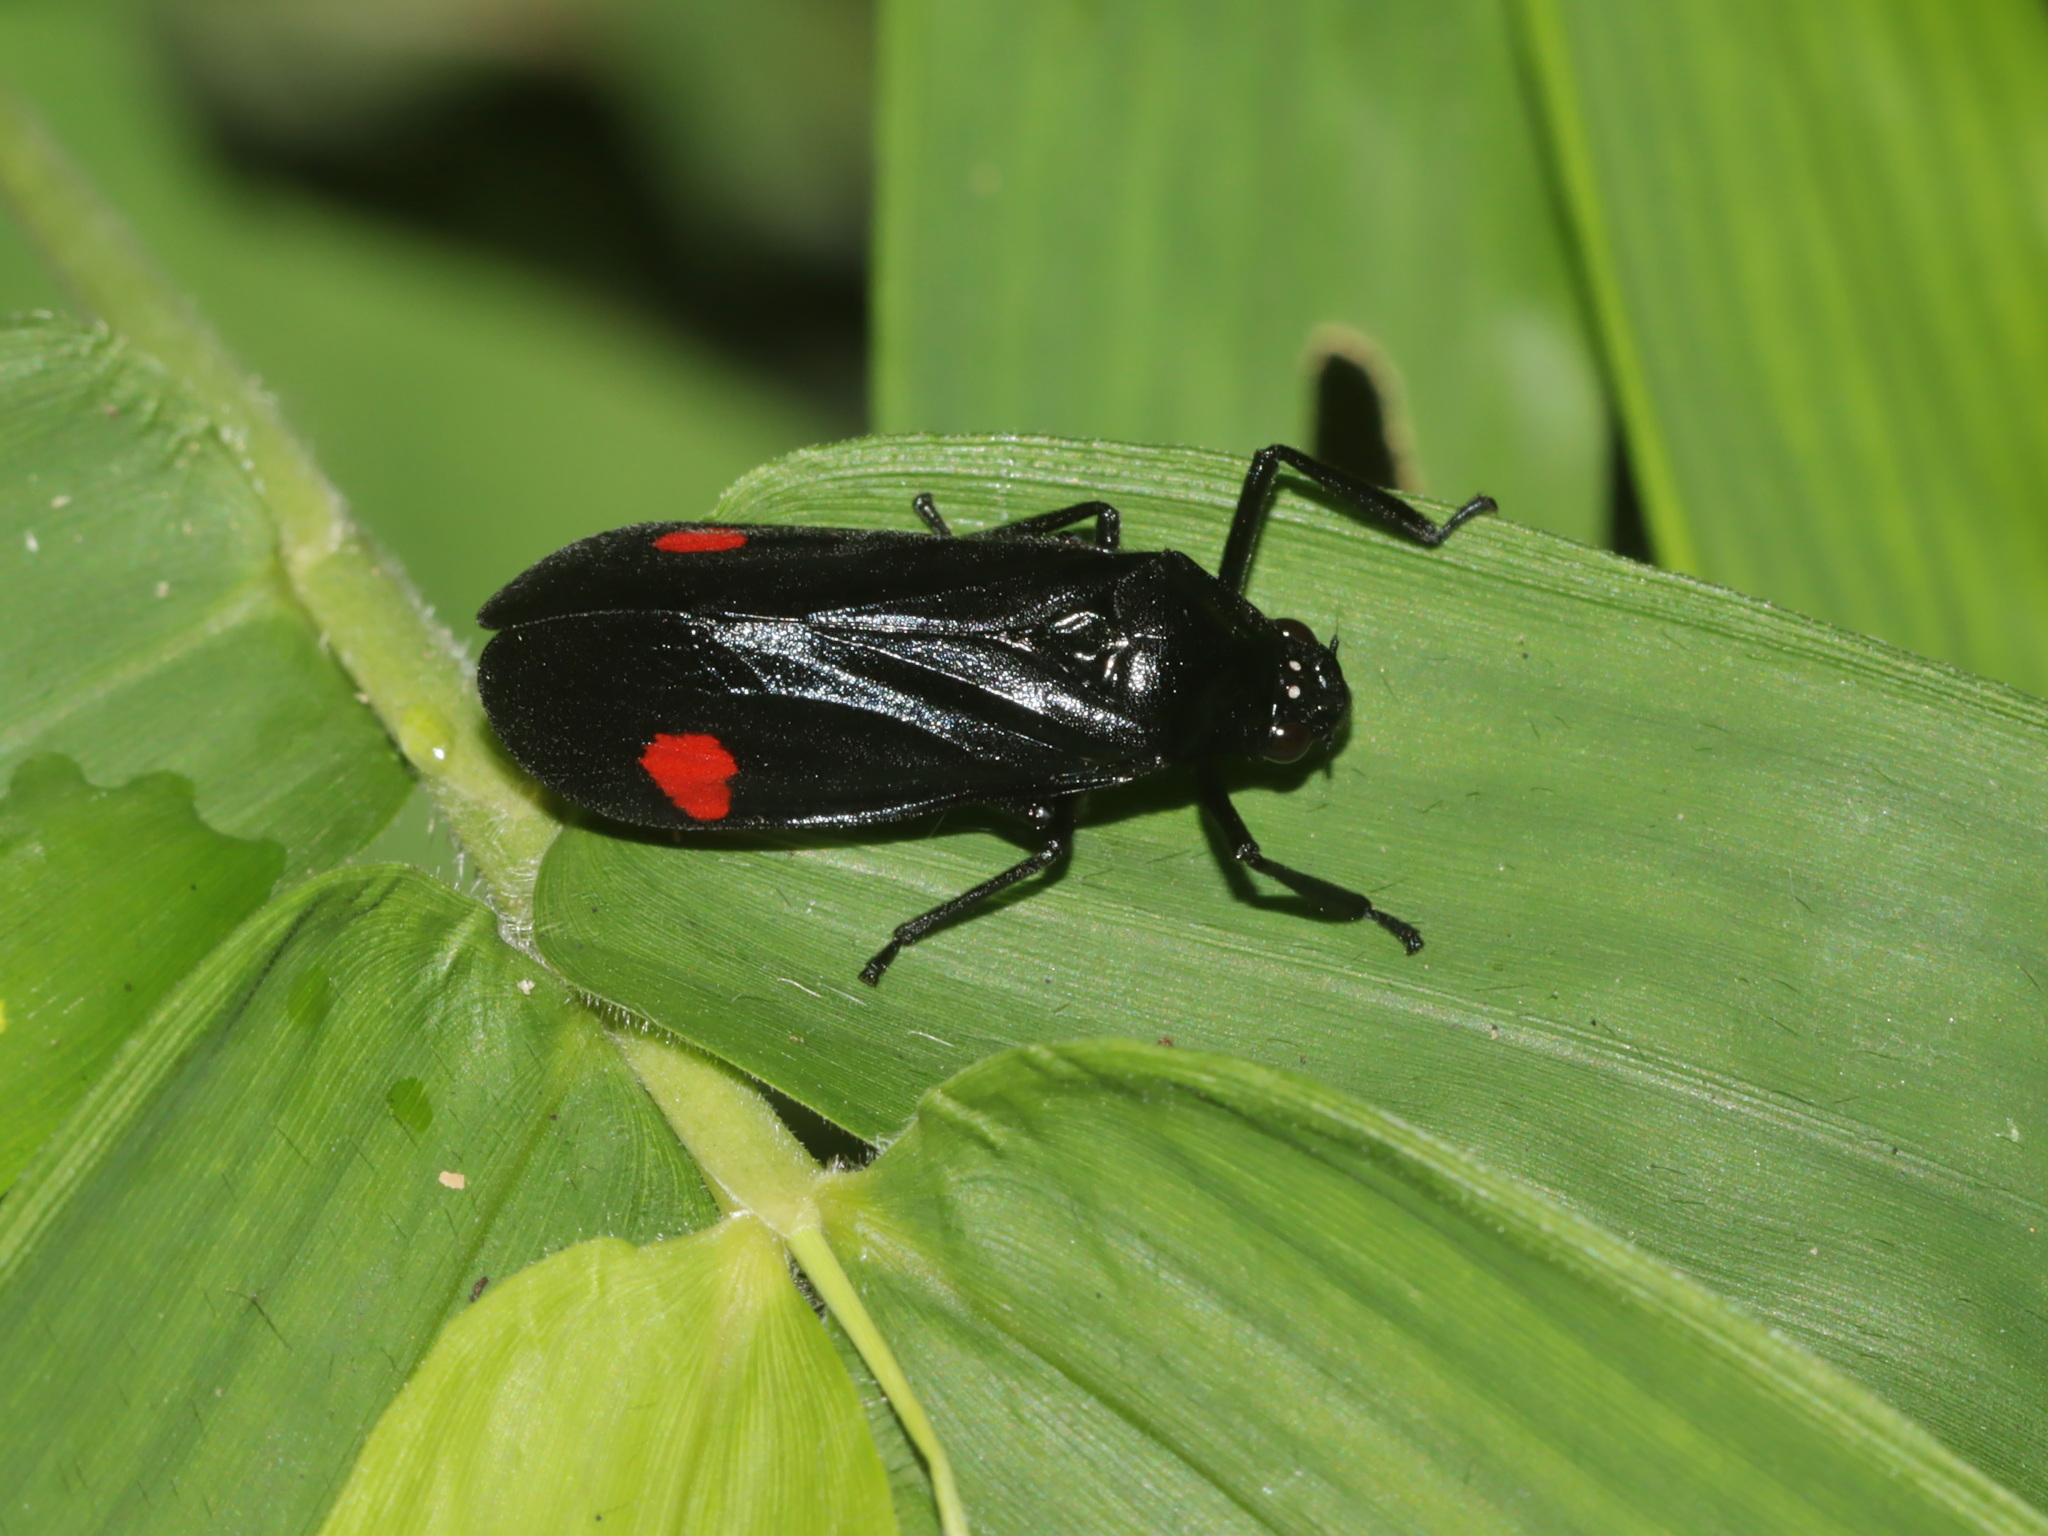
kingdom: Animalia
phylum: Arthropoda
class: Insecta
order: Hemiptera
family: Cercopidae
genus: Callitettix
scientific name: Callitettix versicolor
